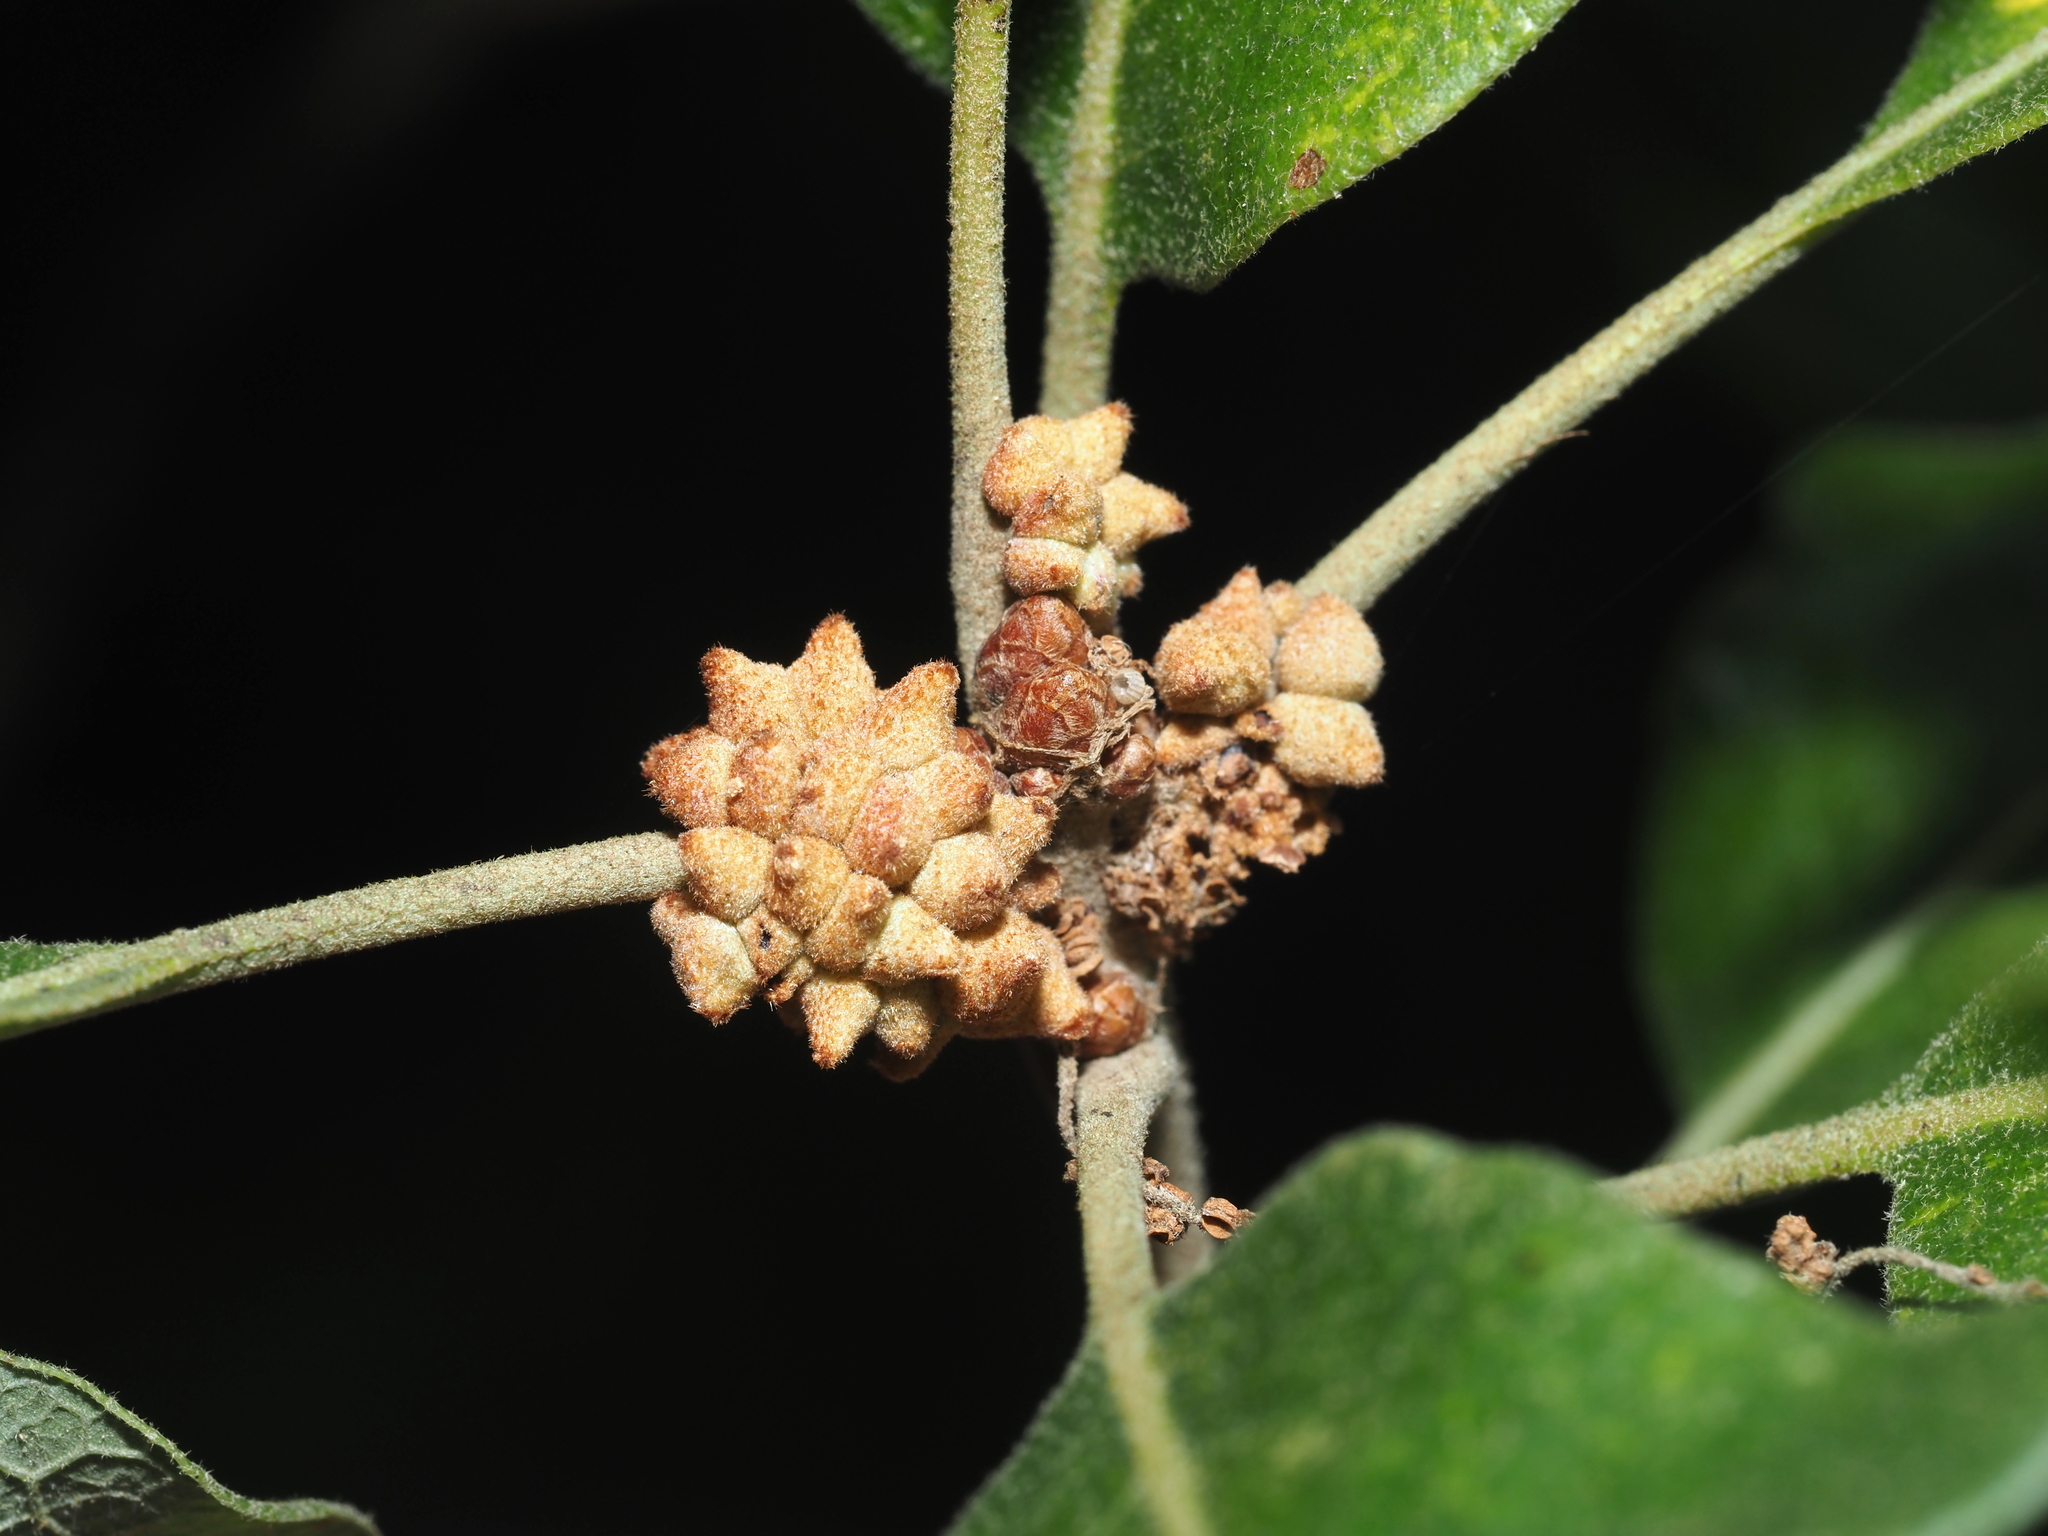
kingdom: Animalia
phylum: Arthropoda
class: Insecta
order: Hymenoptera
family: Cynipidae
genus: Andricus
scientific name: Andricus
